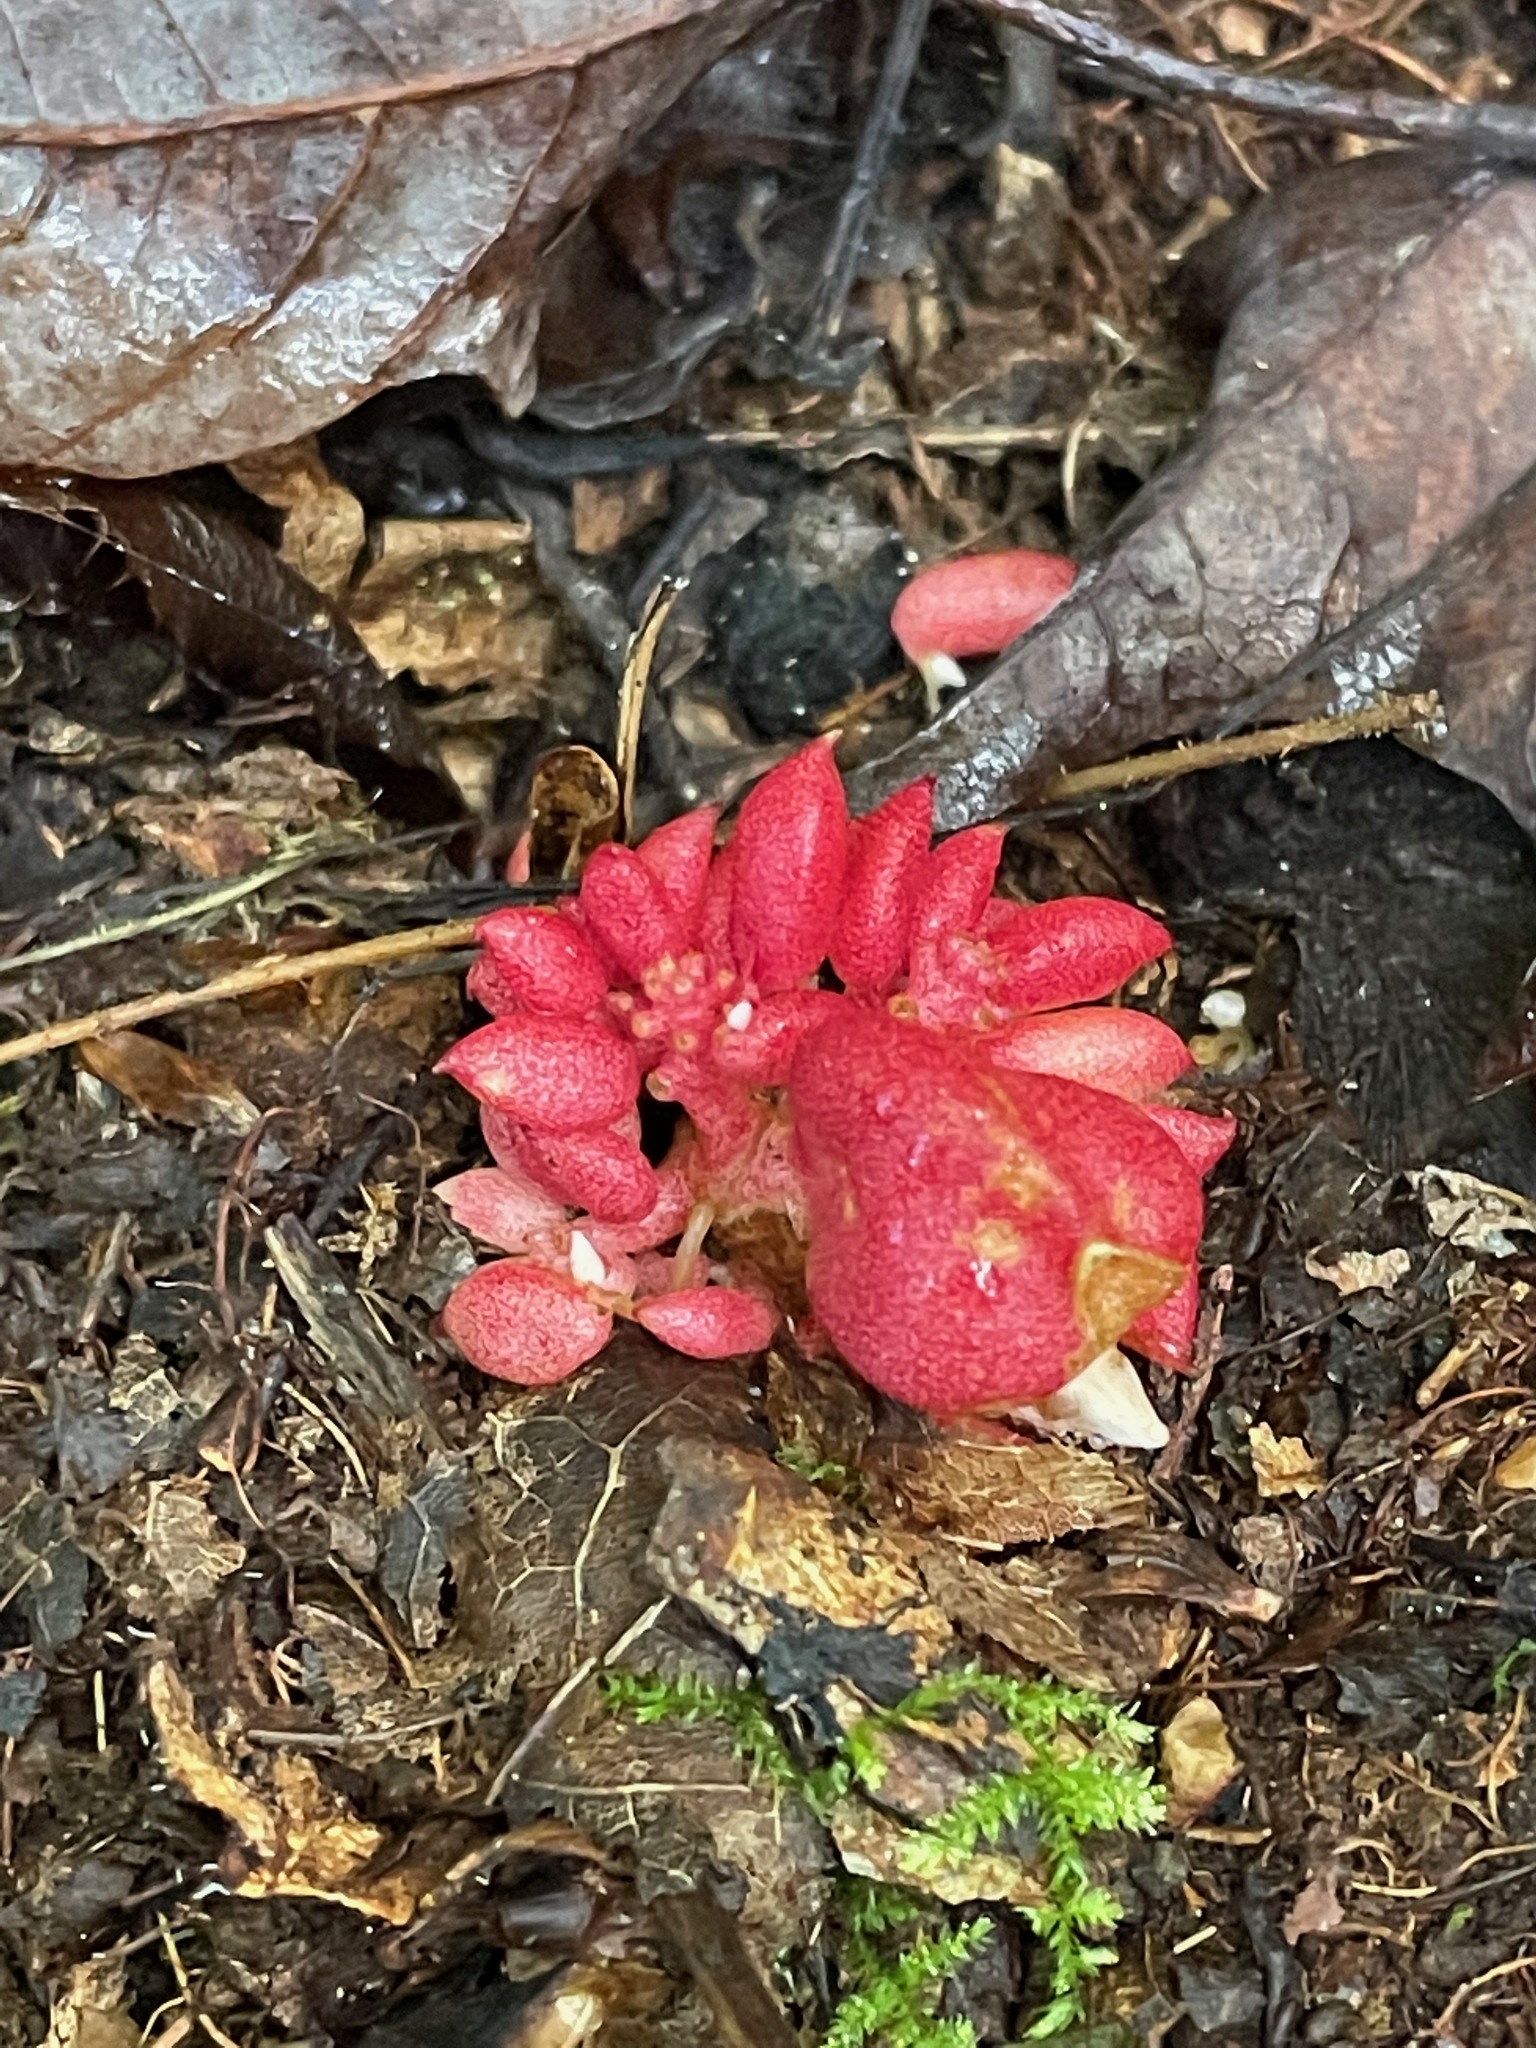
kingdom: Plantae
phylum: Tracheophyta
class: Magnoliopsida
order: Ranunculales
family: Papaveraceae
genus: Dicentra
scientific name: Dicentra cucullaria
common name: Dutchman's breeches
